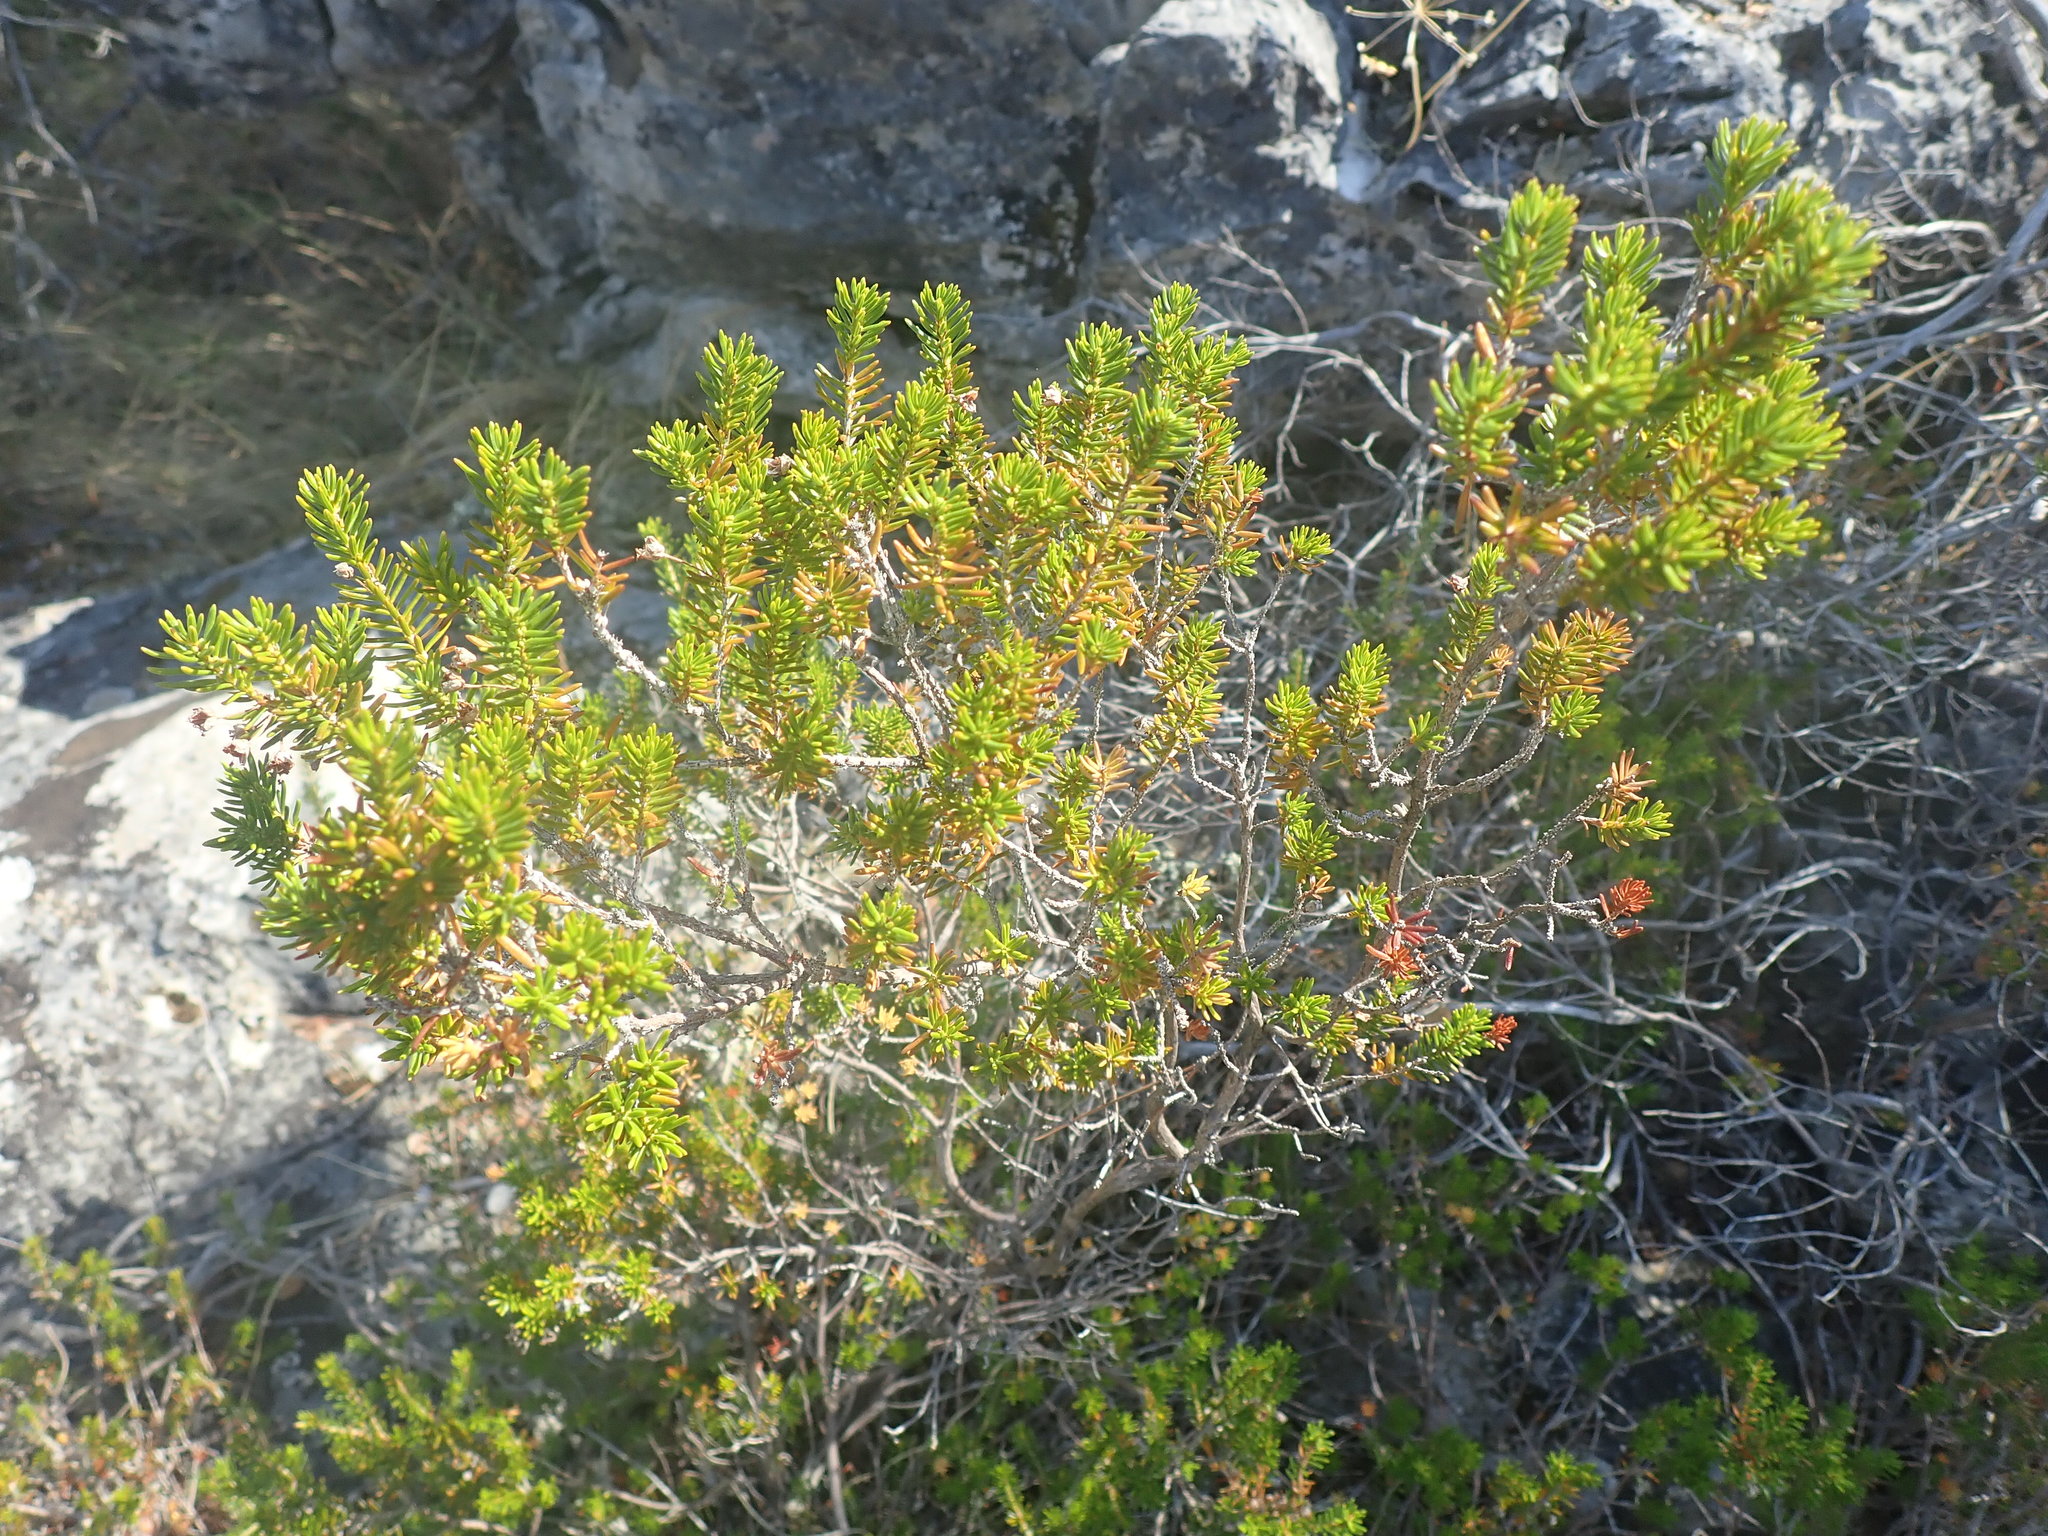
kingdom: Plantae
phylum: Tracheophyta
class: Magnoliopsida
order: Ericales
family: Ericaceae
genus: Erica
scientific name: Erica manipuliflora
